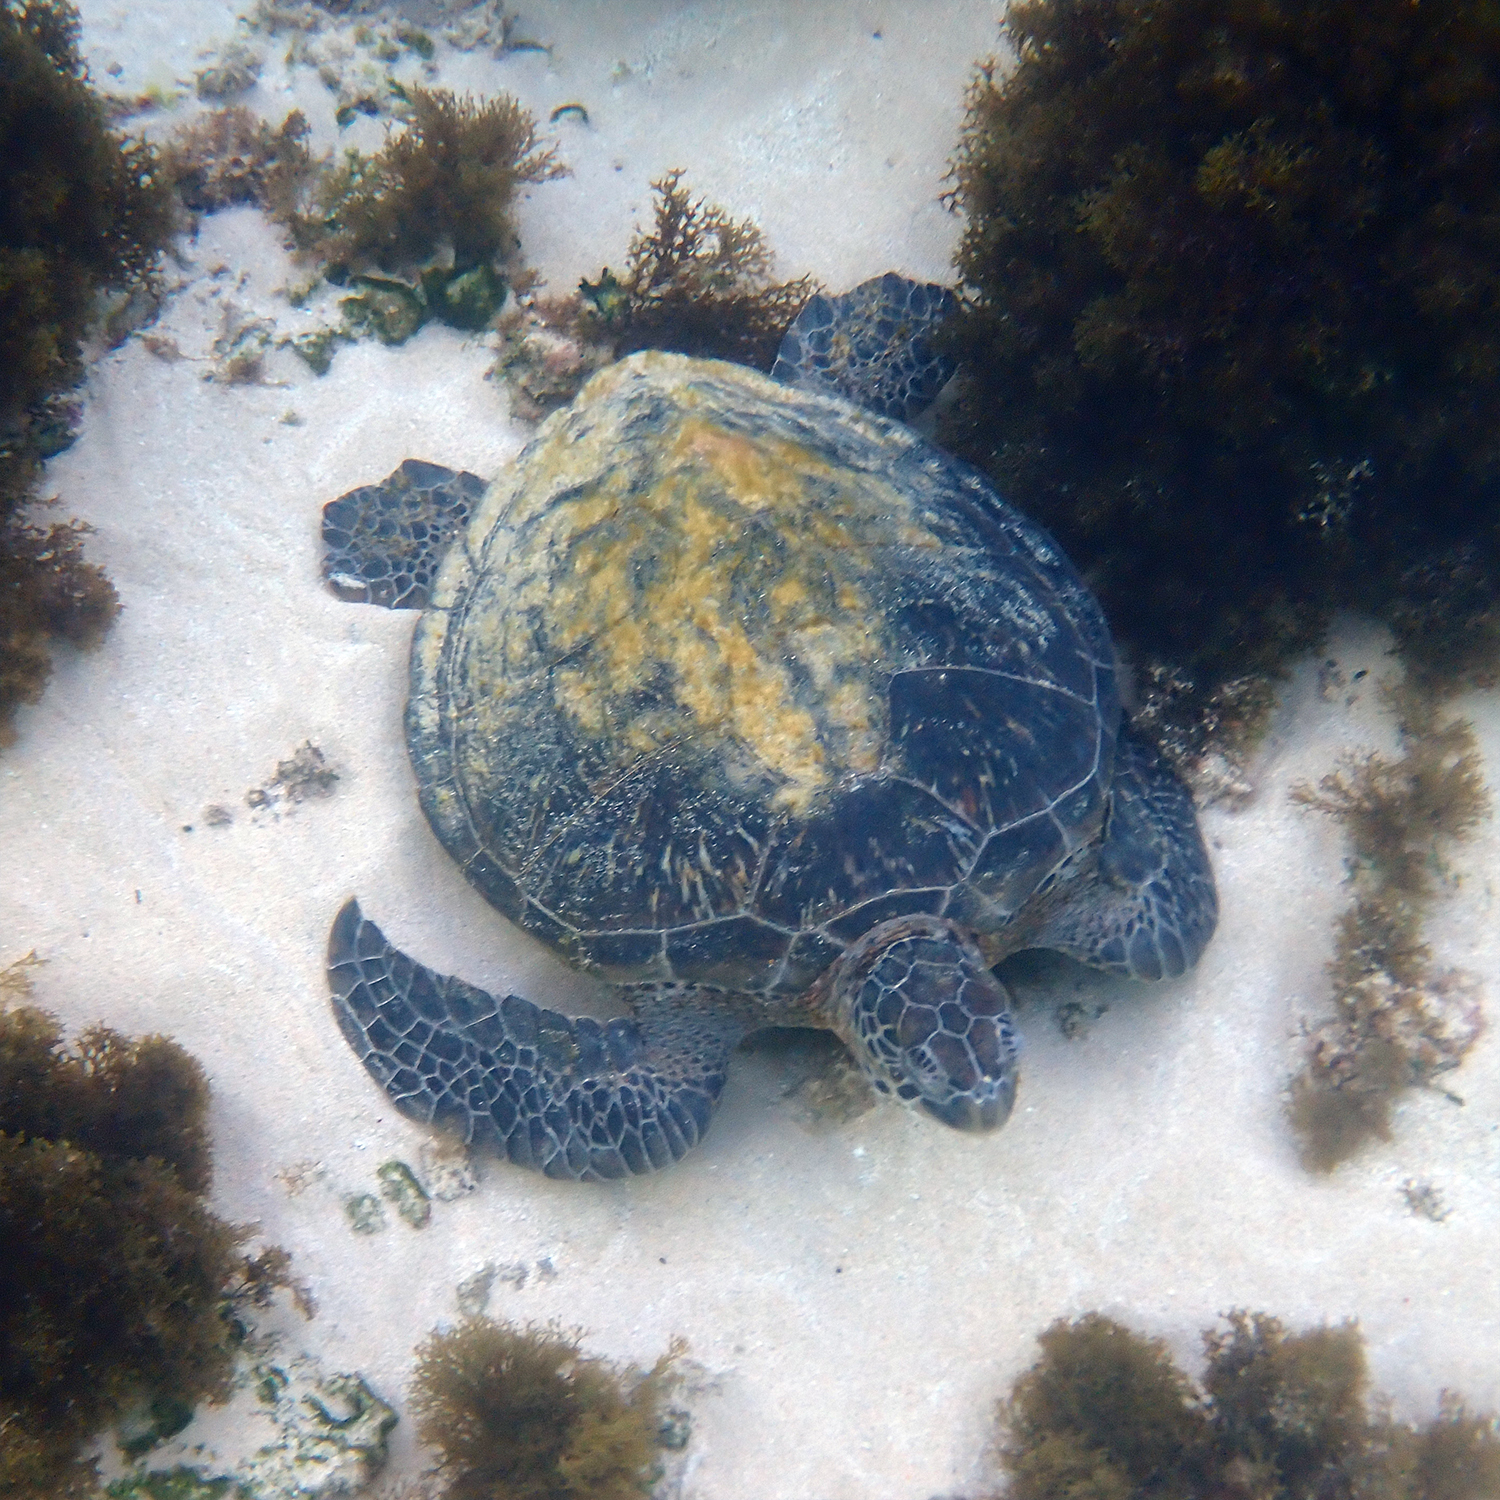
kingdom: Animalia
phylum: Chordata
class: Testudines
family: Cheloniidae
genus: Chelonia
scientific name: Chelonia mydas
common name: Green turtle
